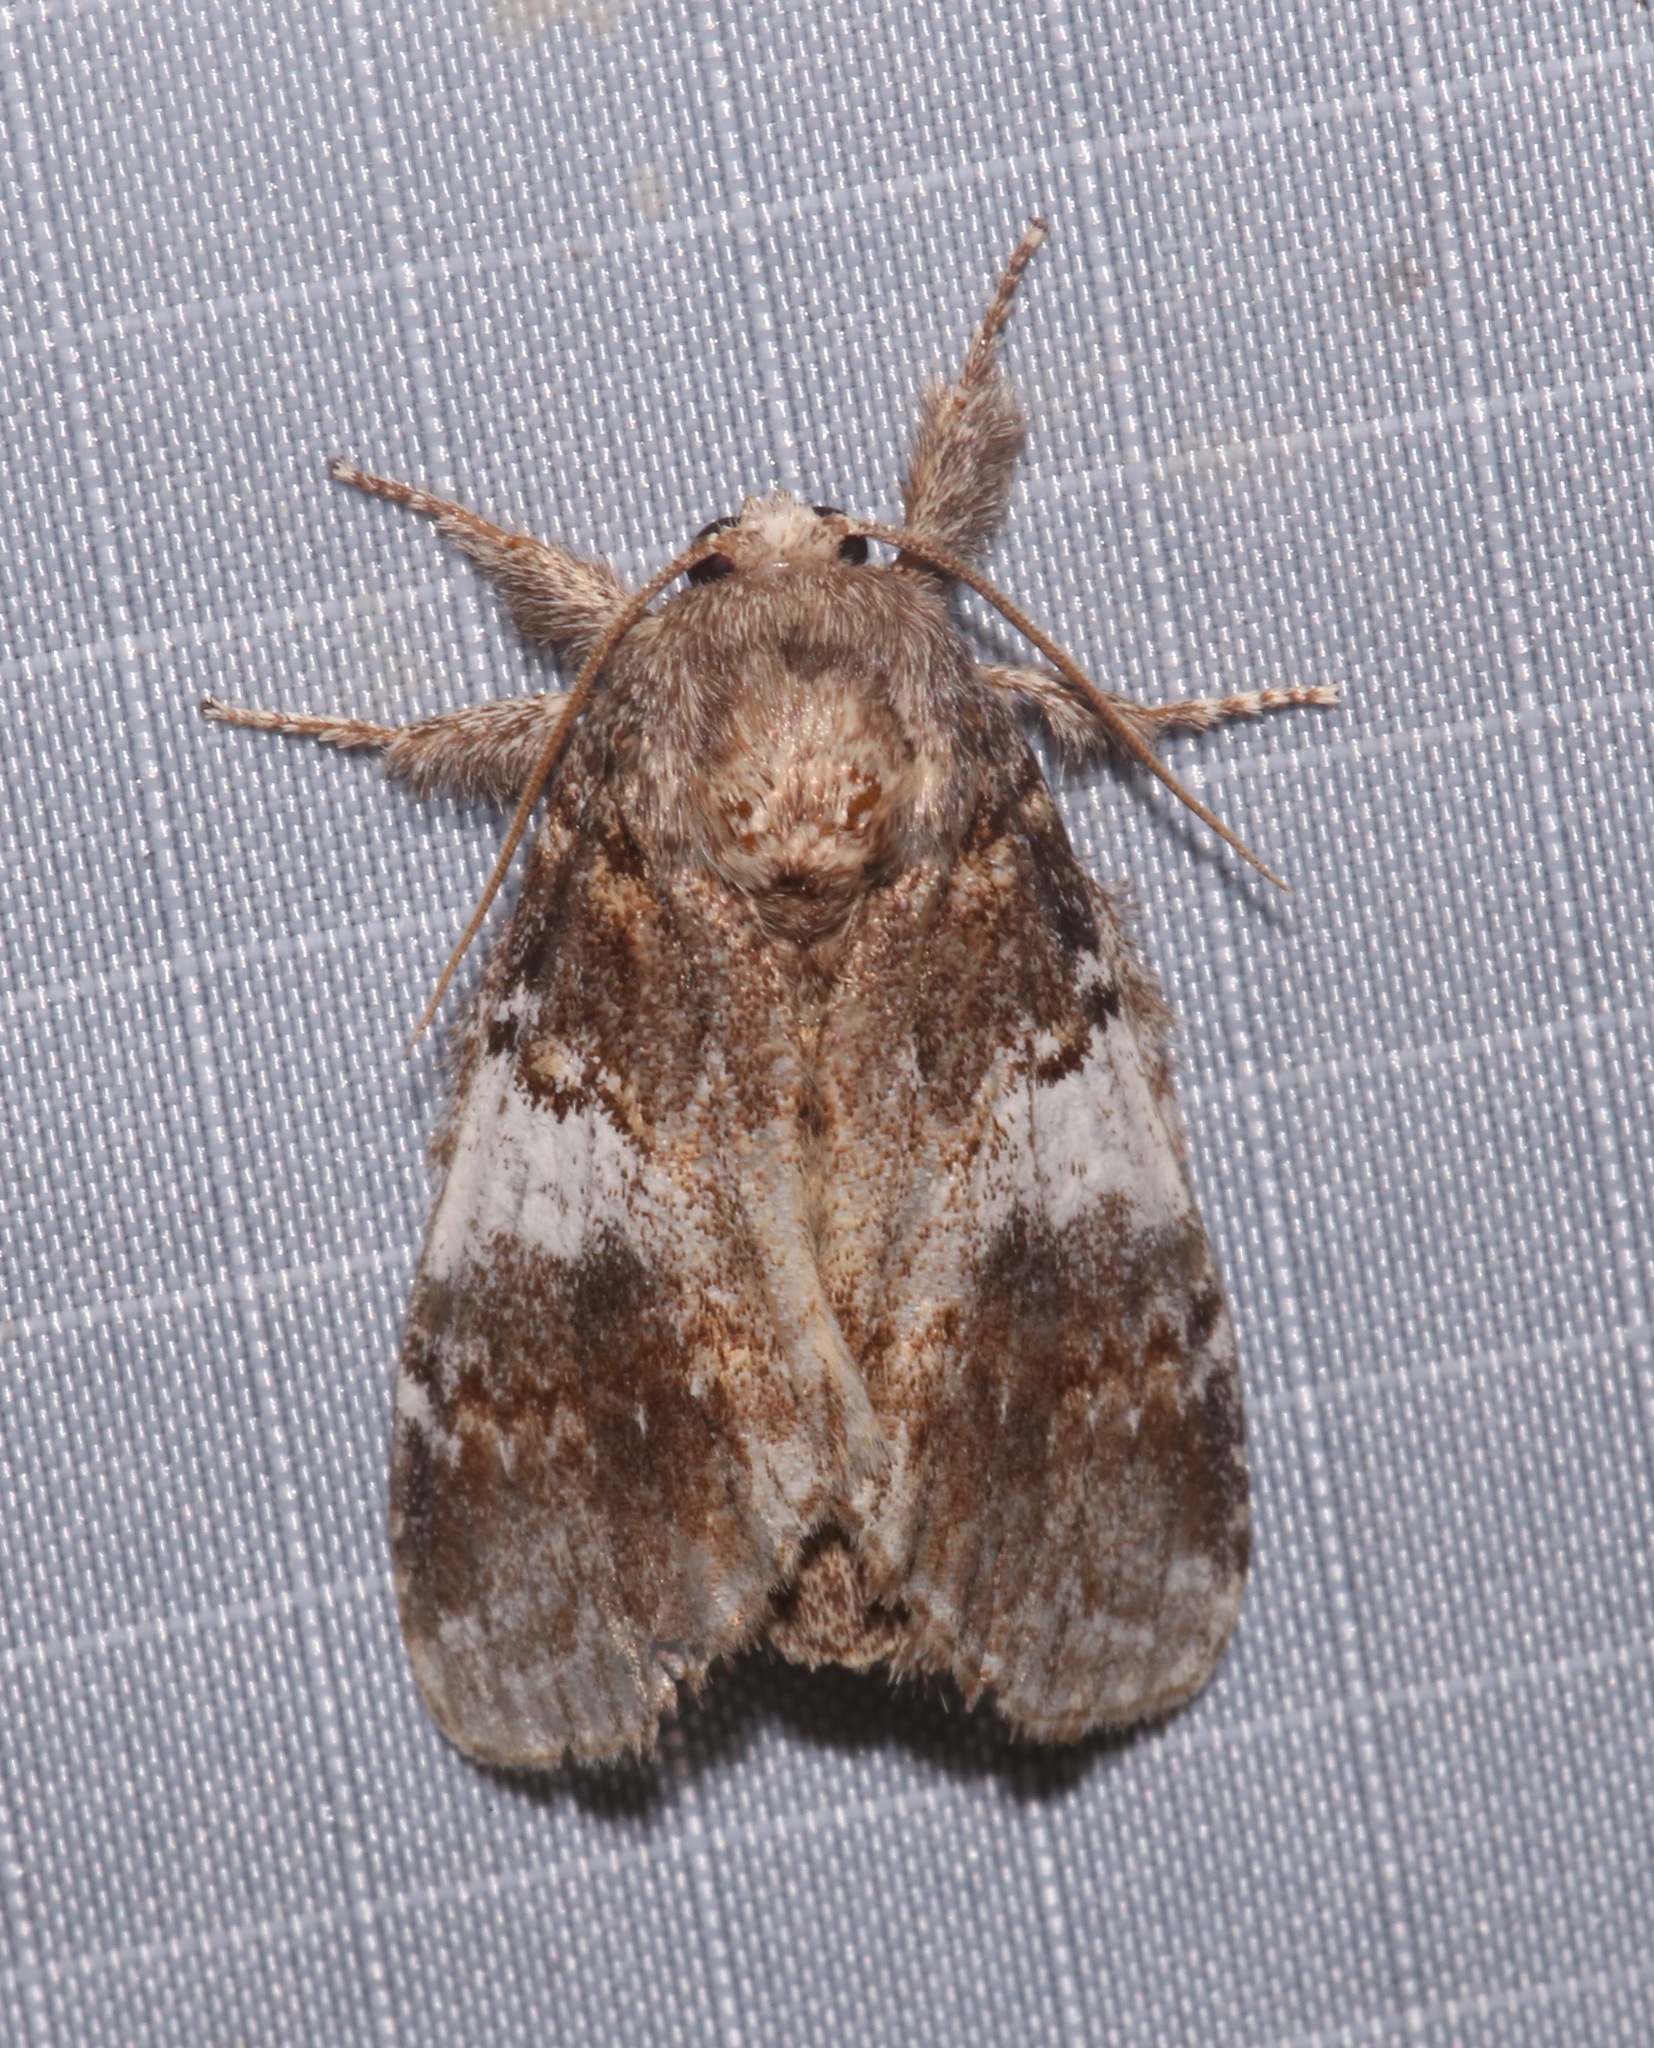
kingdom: Animalia
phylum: Arthropoda
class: Insecta
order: Lepidoptera
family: Notodontidae
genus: Peridea
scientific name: Peridea angulosa
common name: Angulose prominent
